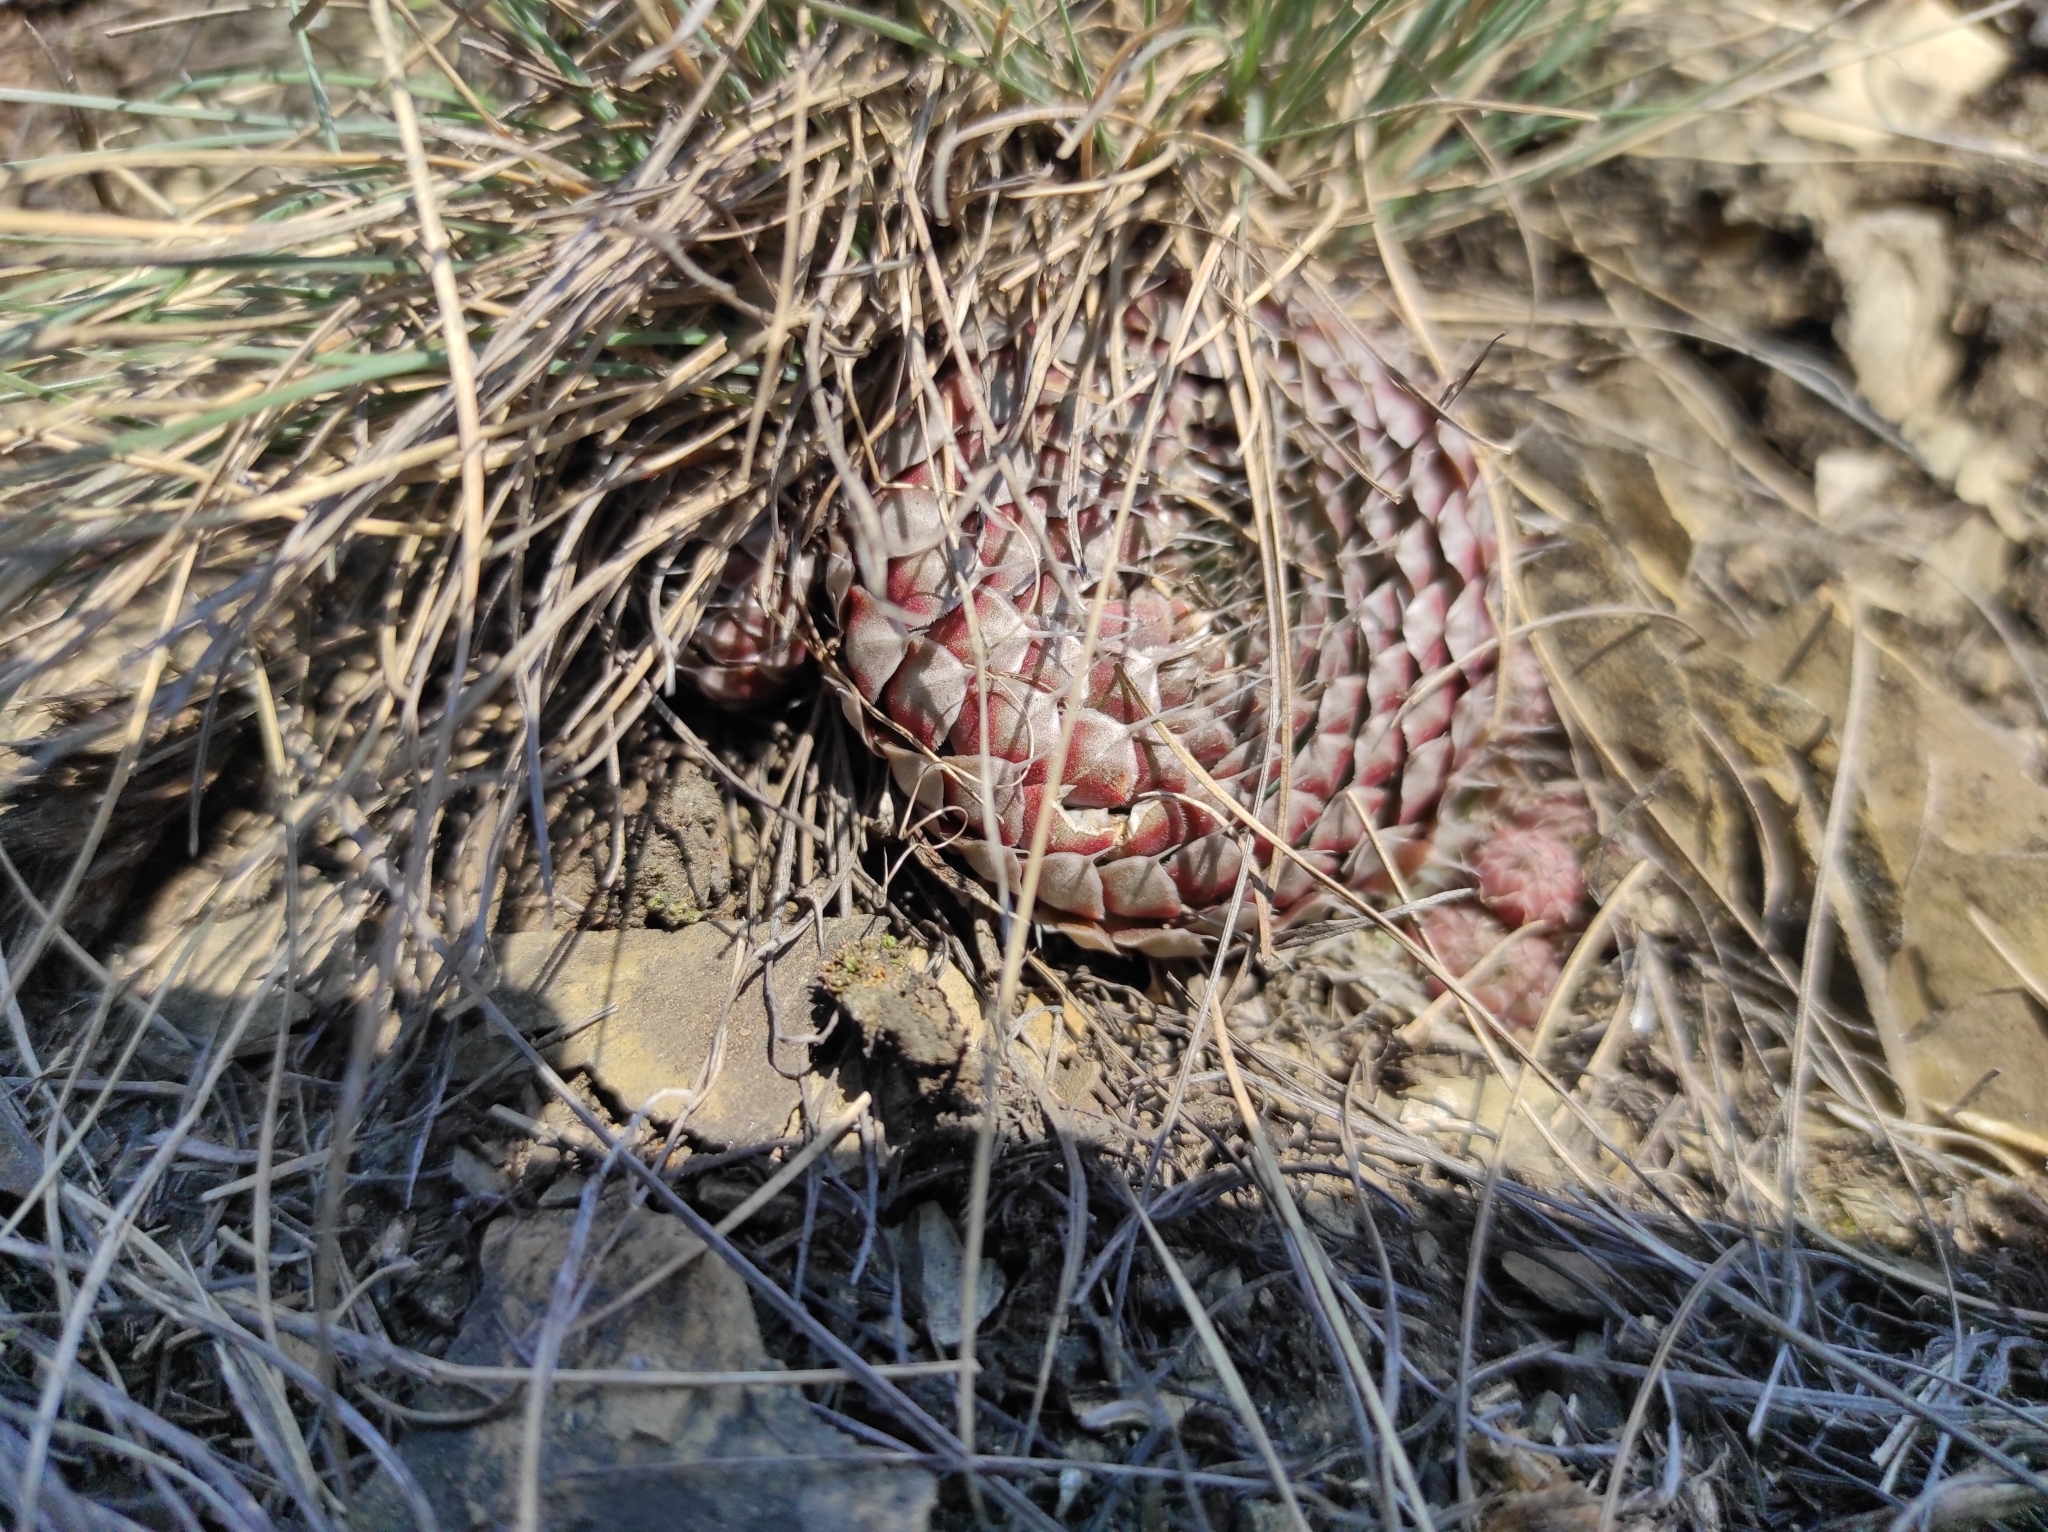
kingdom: Plantae
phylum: Tracheophyta
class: Magnoliopsida
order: Saxifragales
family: Crassulaceae
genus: Orostachys
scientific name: Orostachys spinosa
